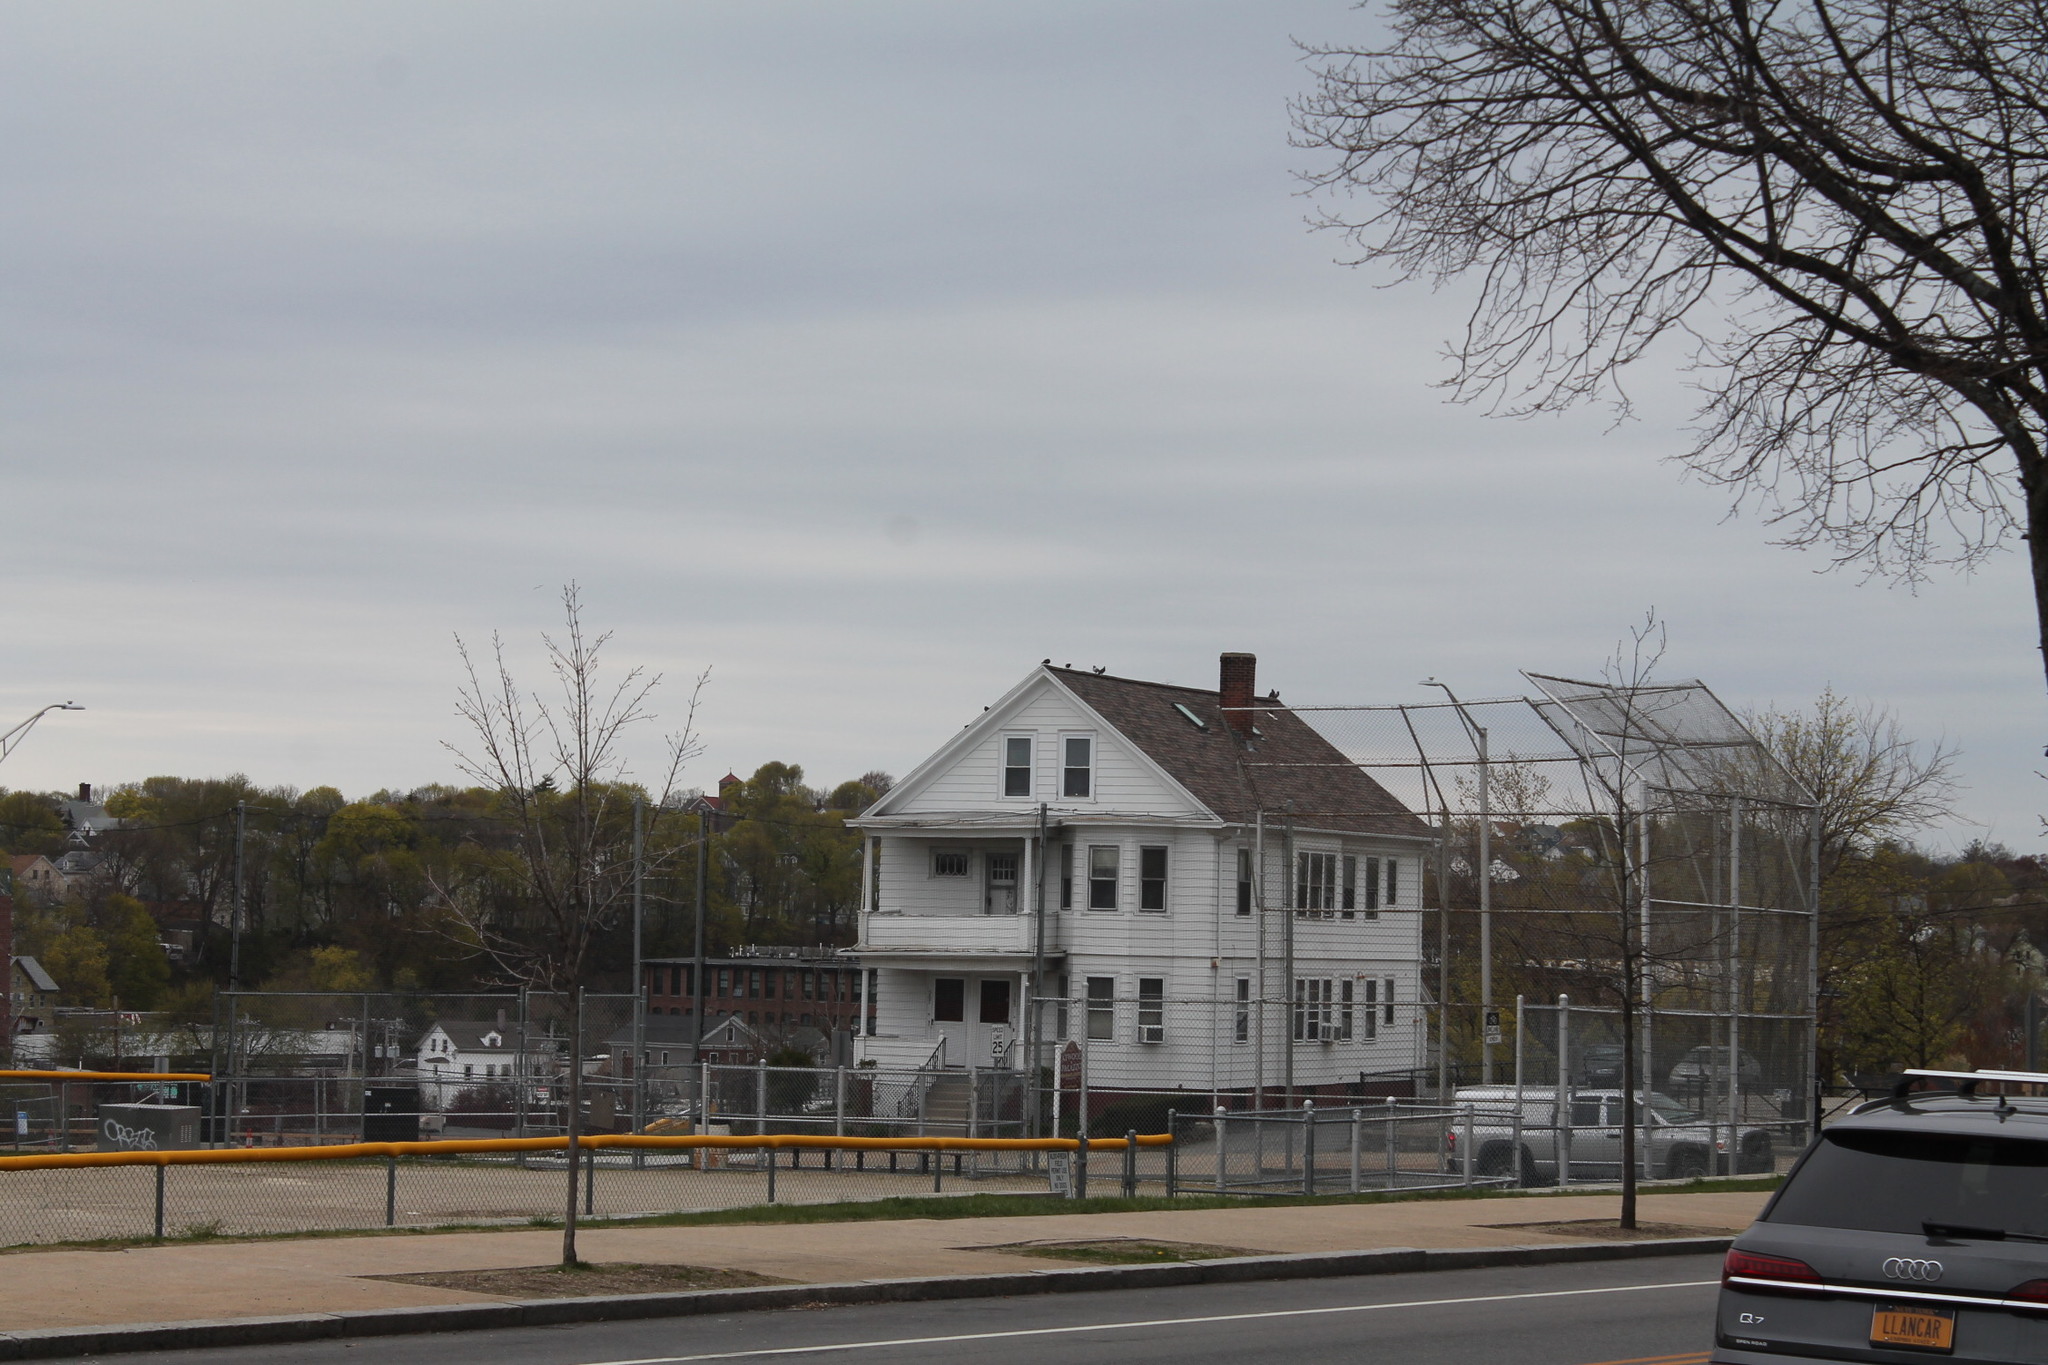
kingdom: Animalia
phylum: Chordata
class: Aves
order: Columbiformes
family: Columbidae
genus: Columba
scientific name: Columba livia
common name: Rock pigeon
